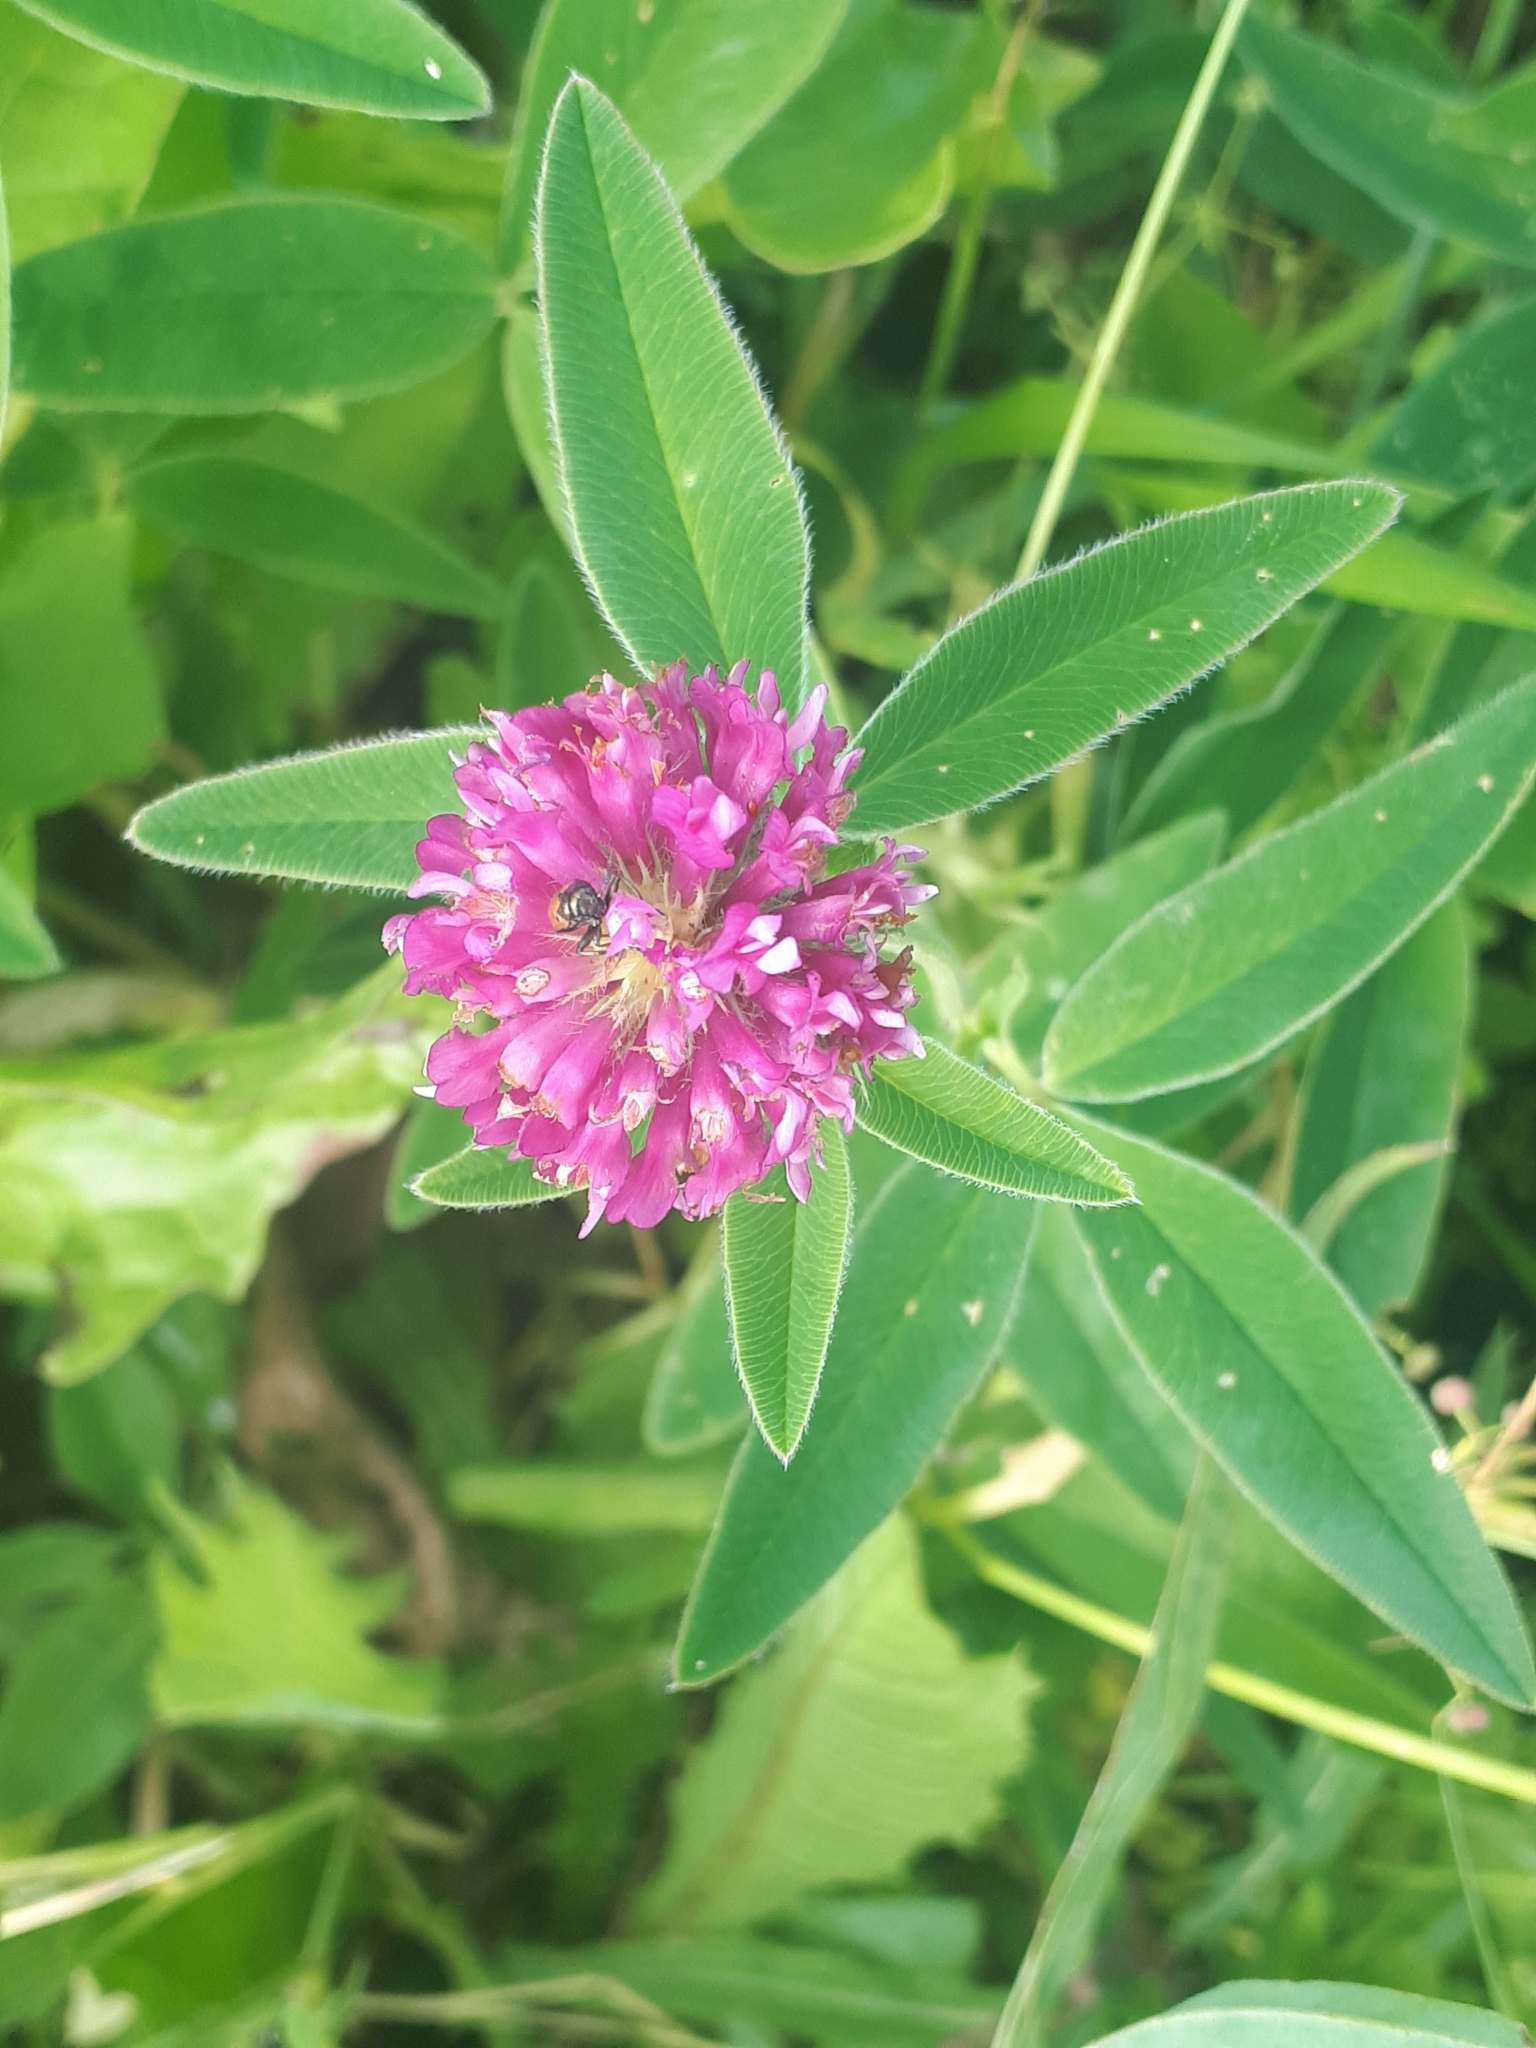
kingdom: Plantae
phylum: Tracheophyta
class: Magnoliopsida
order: Fabales
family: Fabaceae
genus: Trifolium
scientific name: Trifolium medium
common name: Zigzag clover
